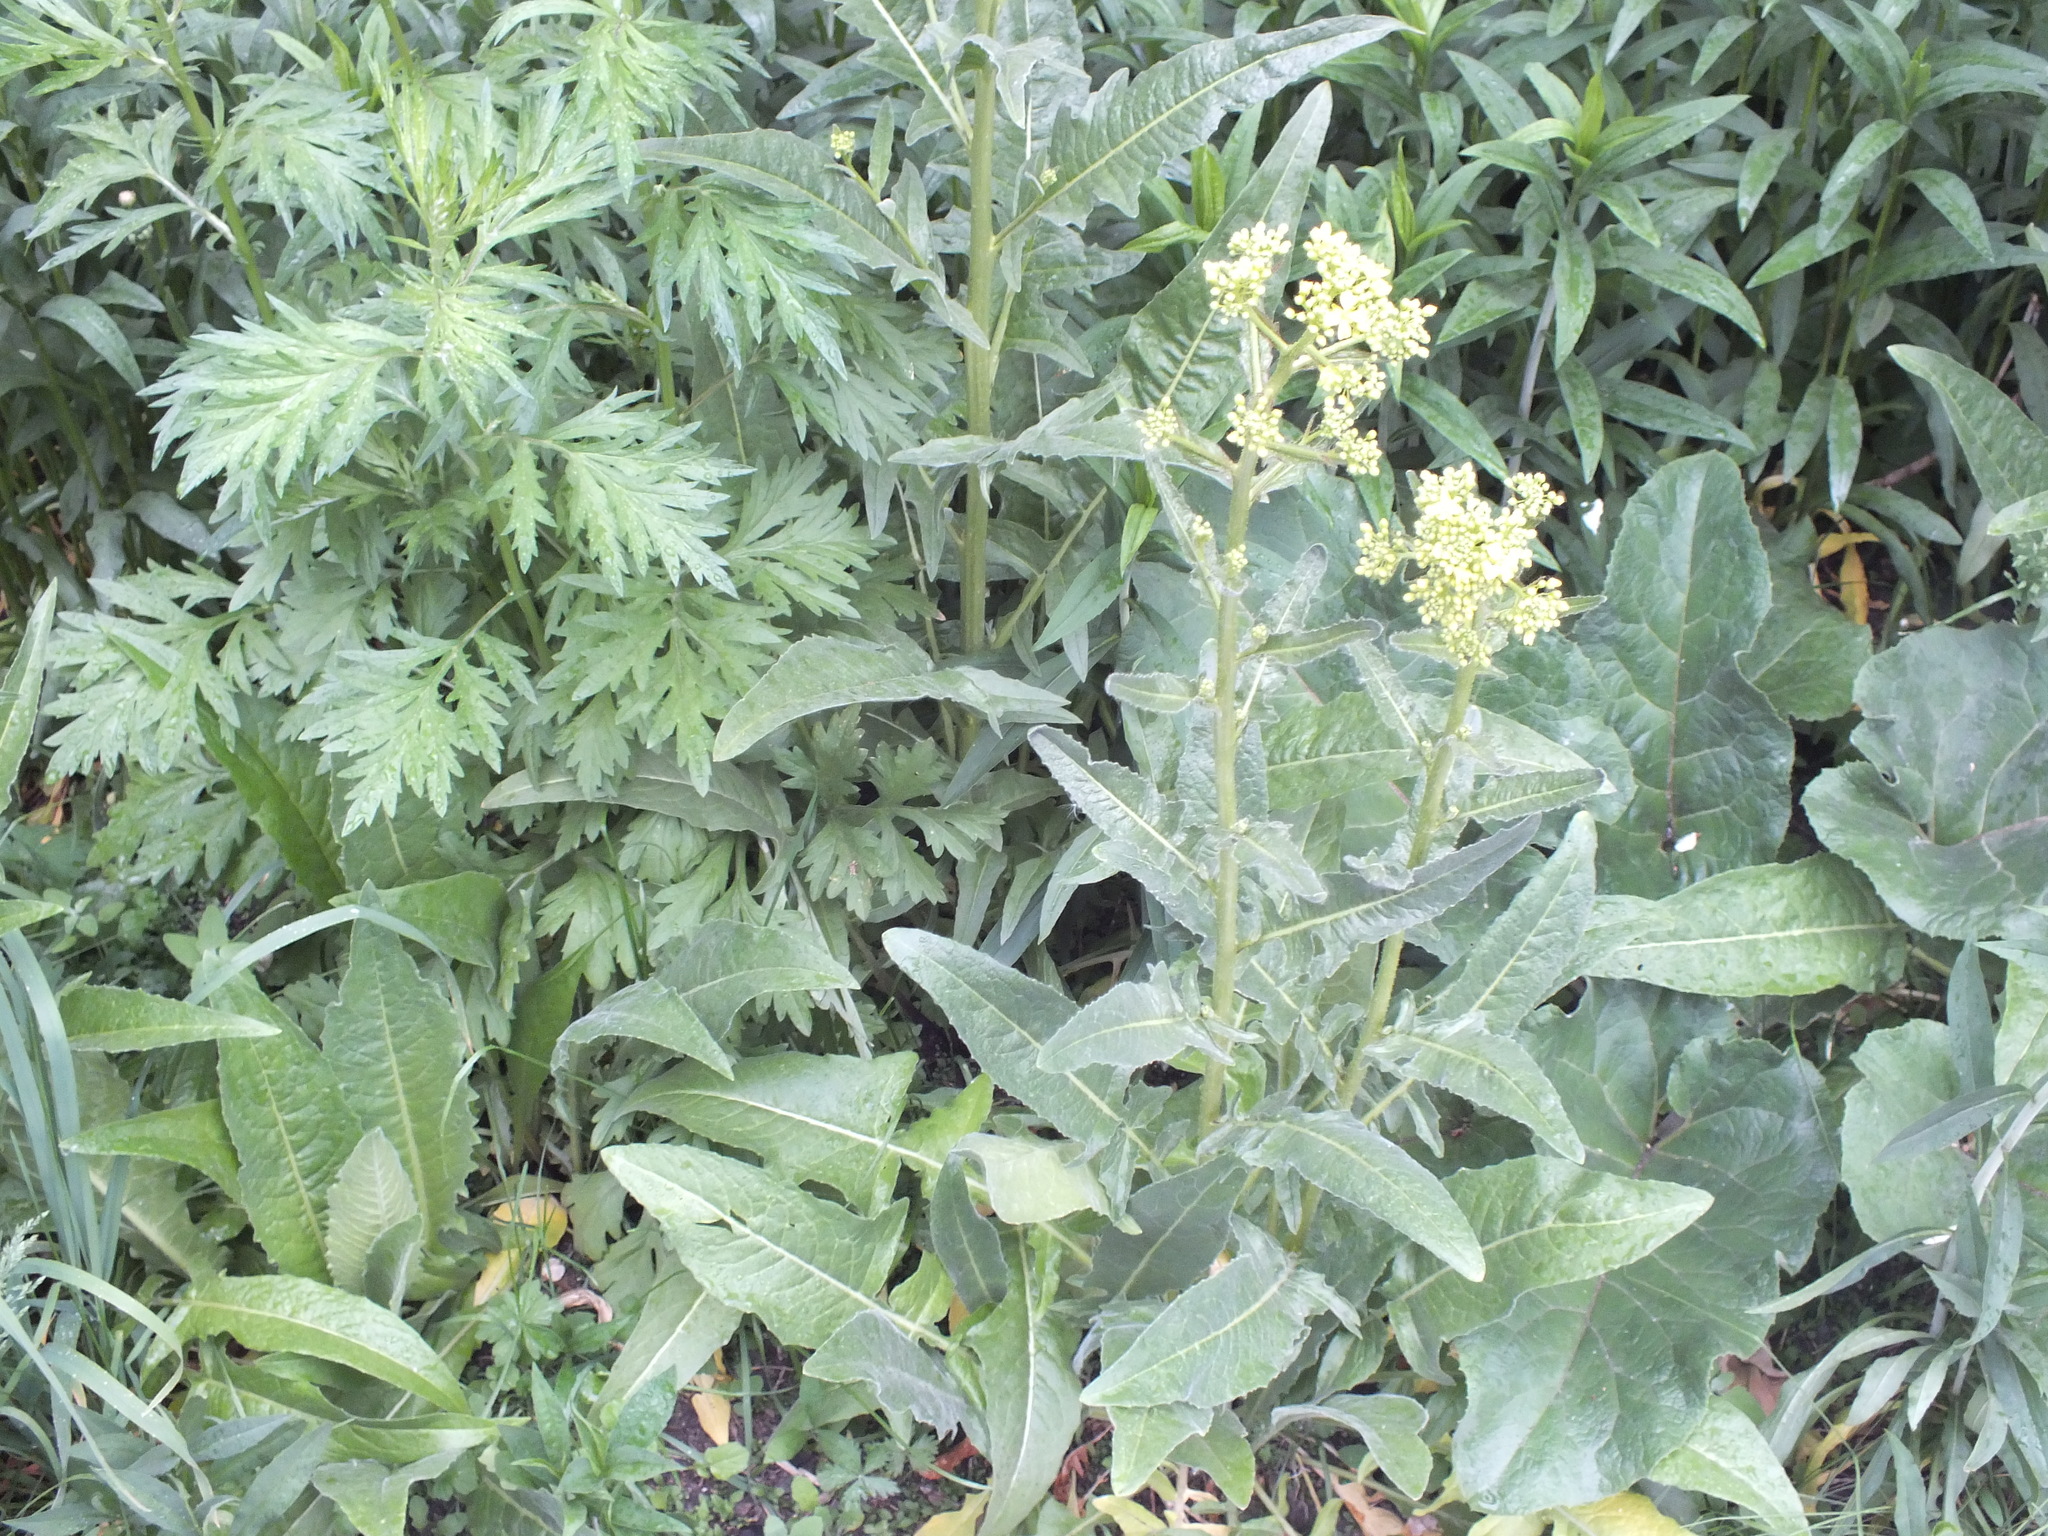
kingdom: Plantae
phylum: Tracheophyta
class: Magnoliopsida
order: Brassicales
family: Brassicaceae
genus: Bunias
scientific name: Bunias orientalis
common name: Warty-cabbage
